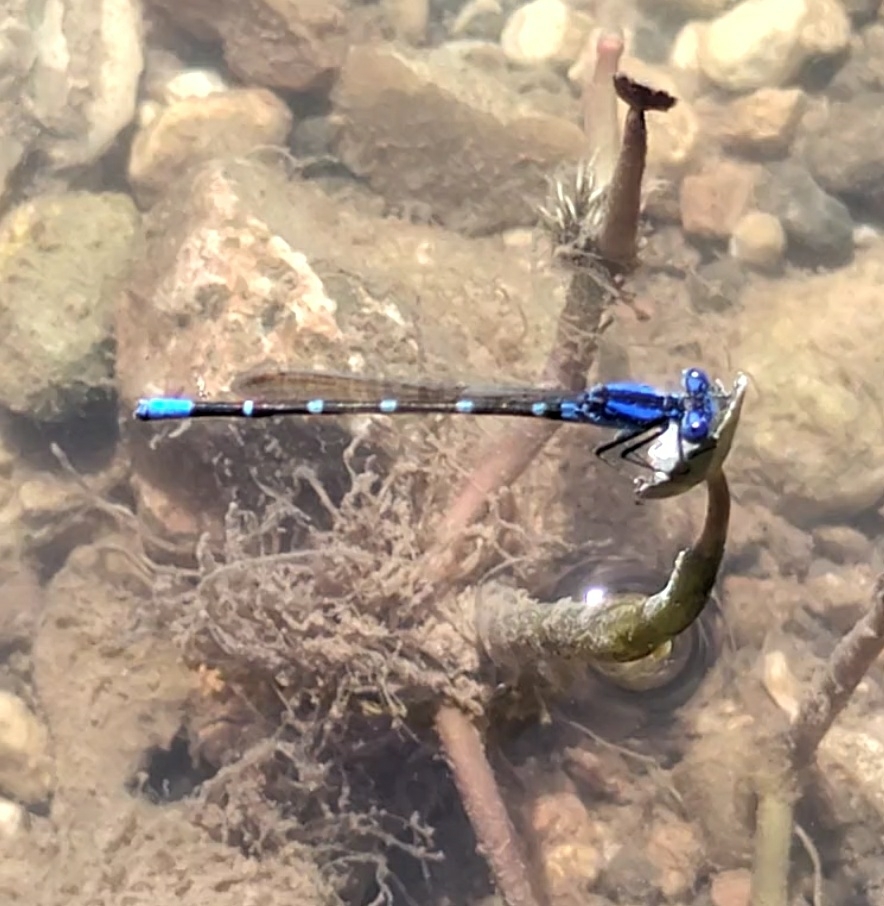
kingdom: Animalia
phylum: Arthropoda
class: Insecta
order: Odonata
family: Coenagrionidae
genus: Argia
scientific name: Argia sedula
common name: Blue-ringed dancer
